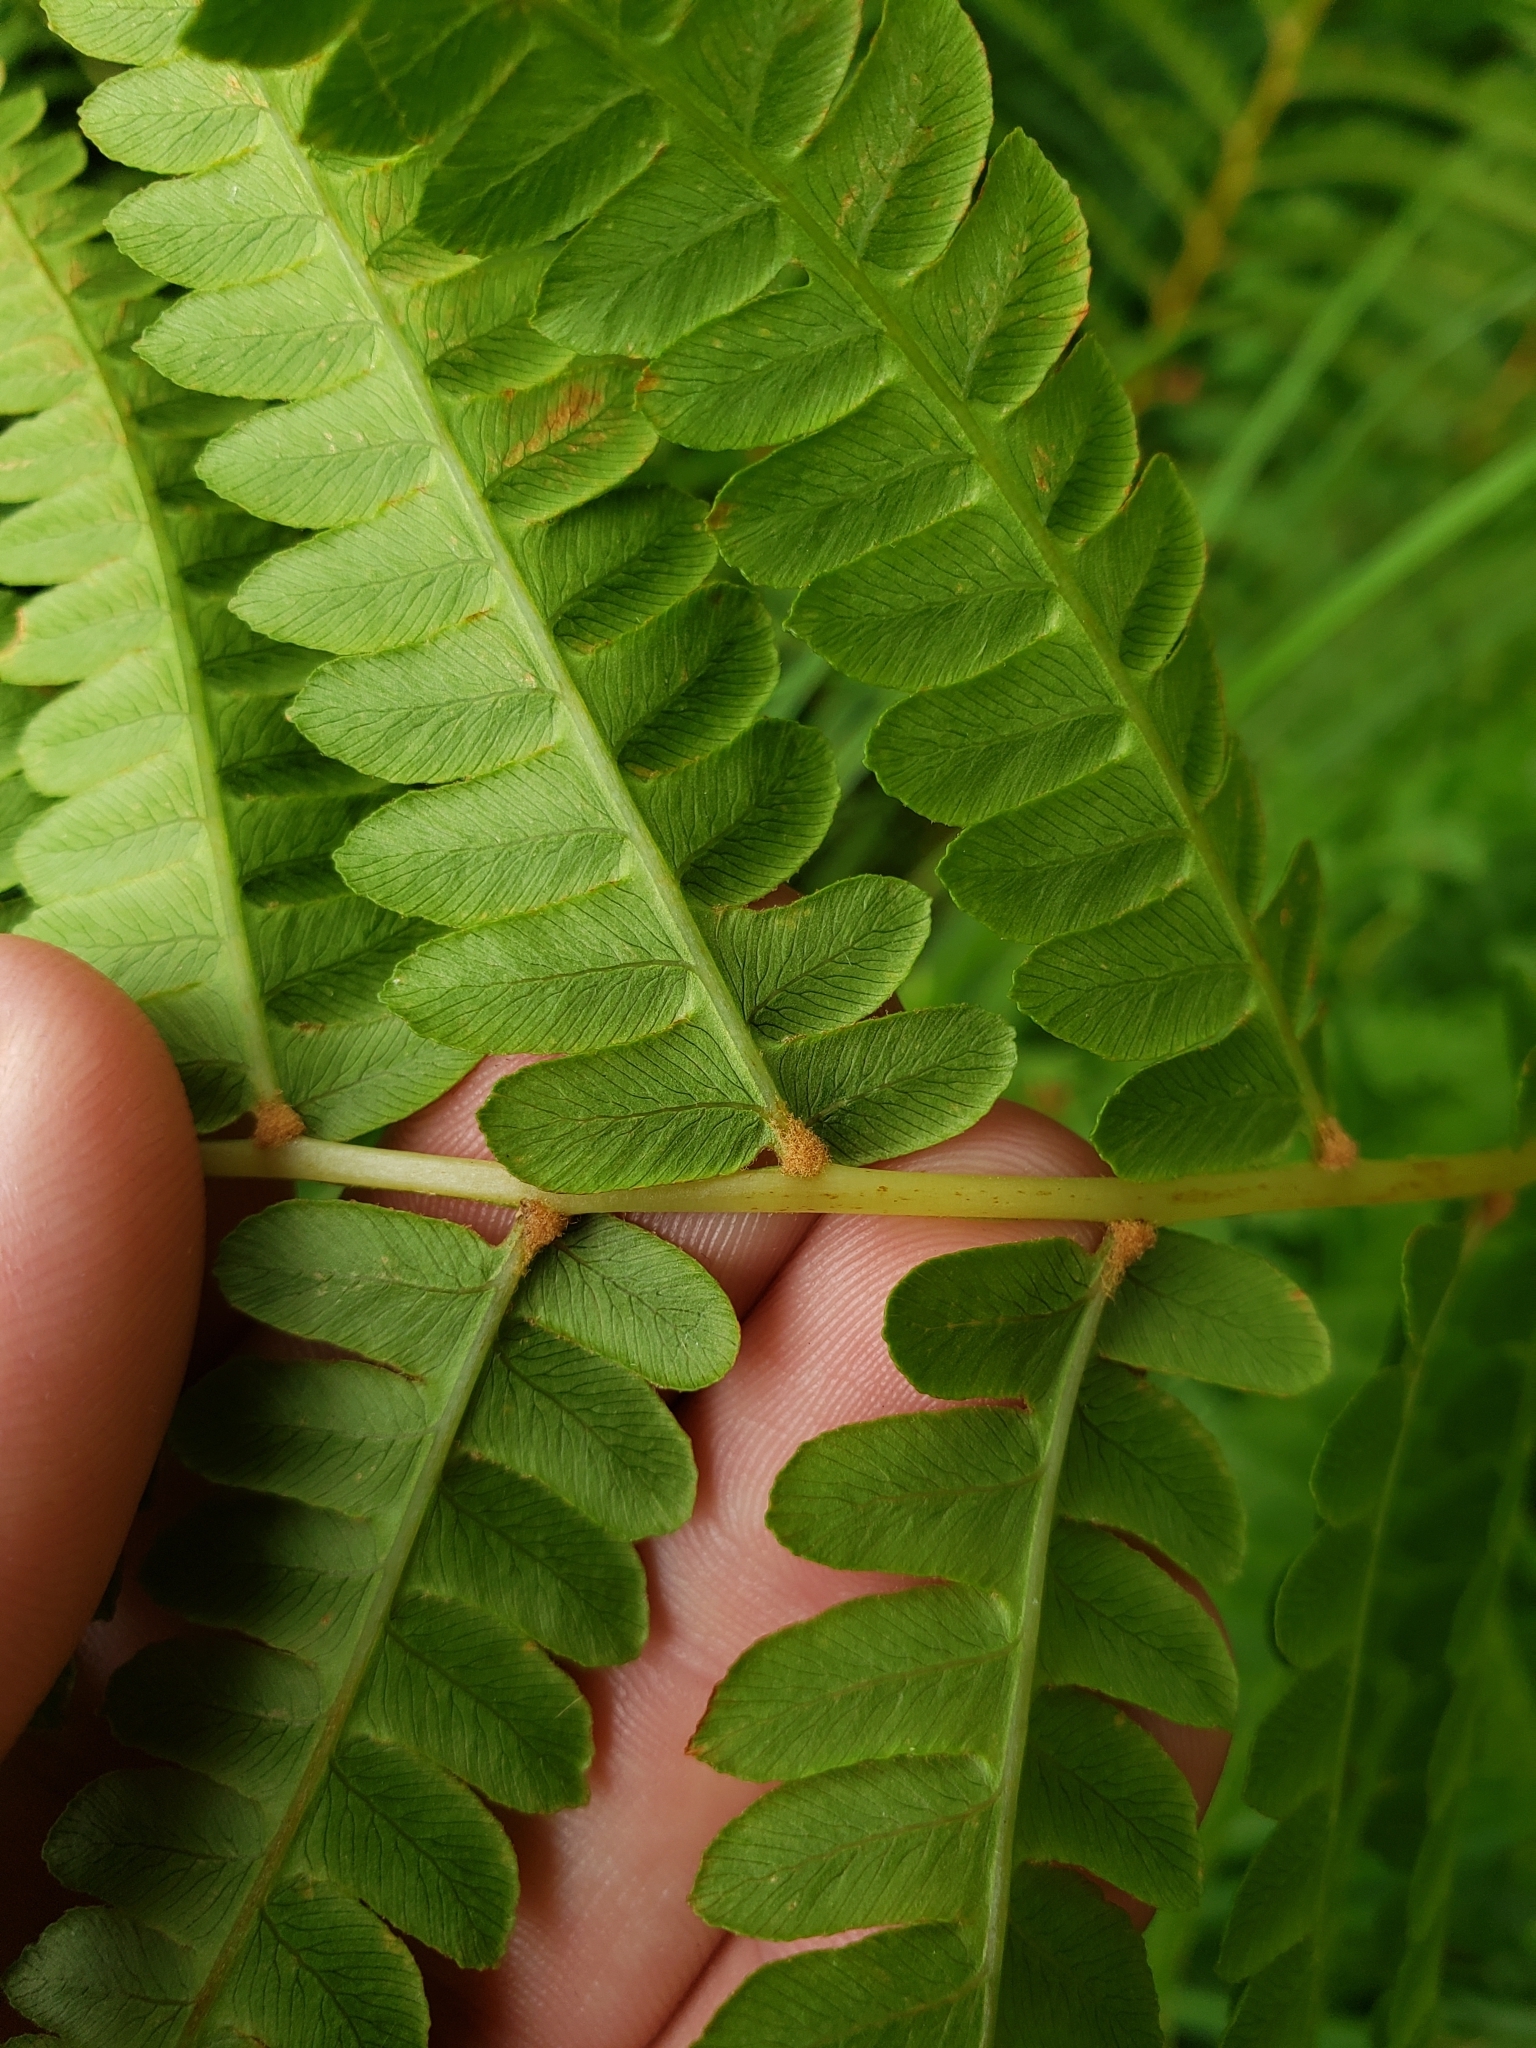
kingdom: Plantae
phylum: Tracheophyta
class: Polypodiopsida
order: Osmundales
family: Osmundaceae
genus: Osmundastrum
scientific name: Osmundastrum cinnamomeum
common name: Cinnamon fern
